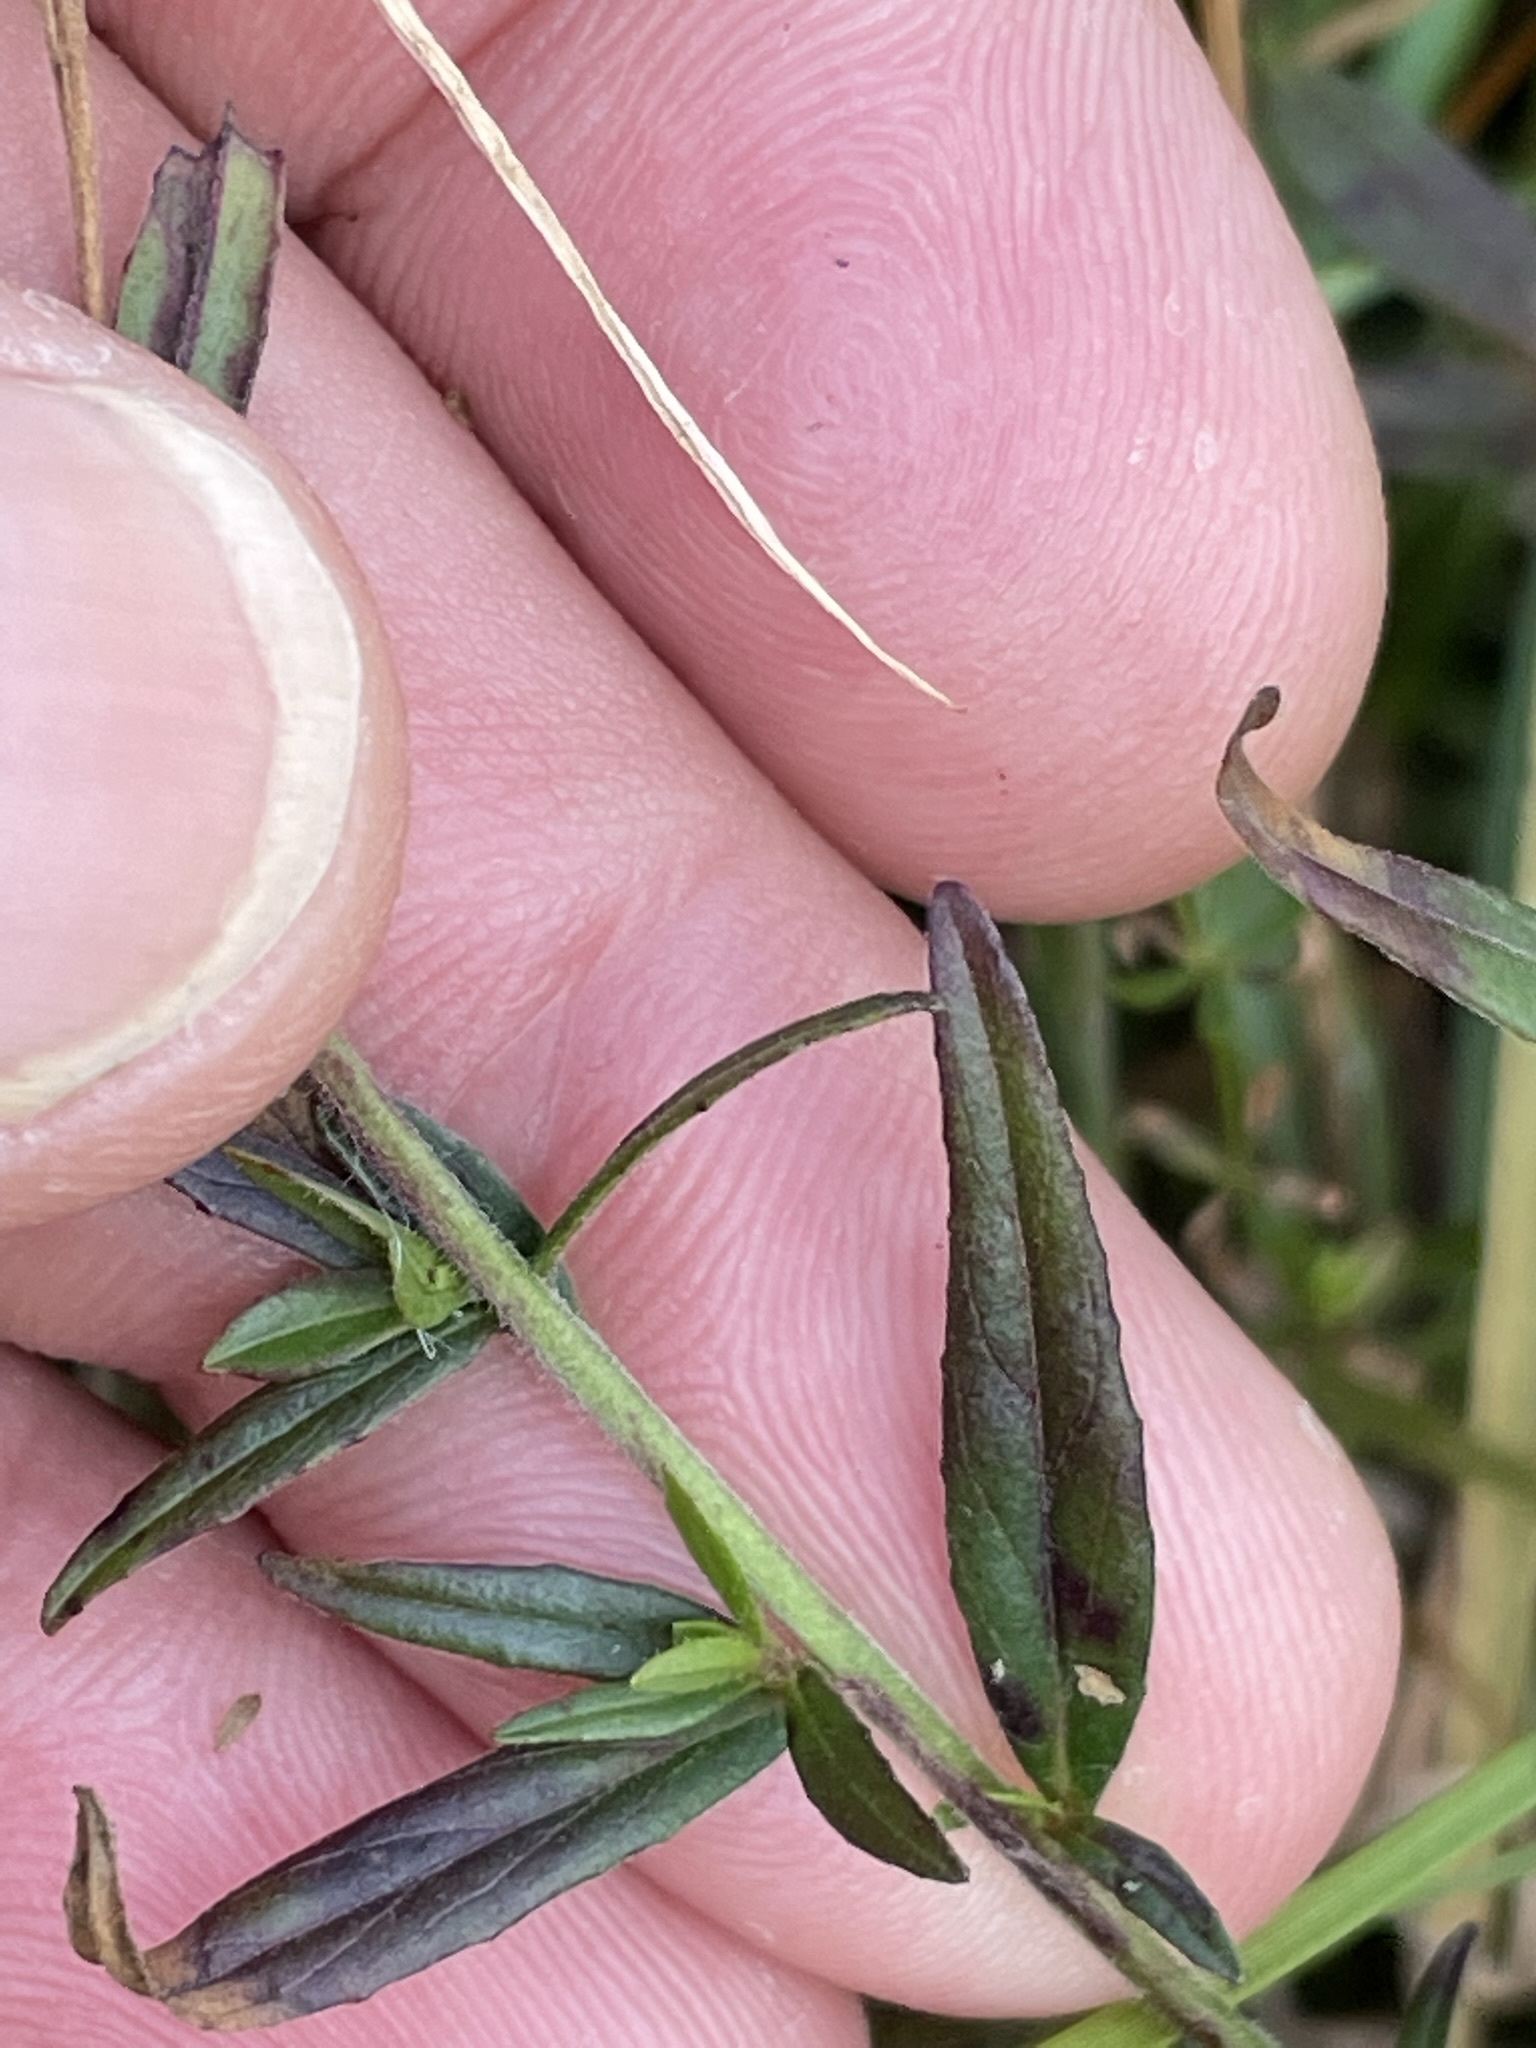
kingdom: Plantae
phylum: Tracheophyta
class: Magnoliopsida
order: Myrtales
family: Onagraceae
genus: Epilobium
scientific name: Epilobium palustre
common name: Marsh willowherb
